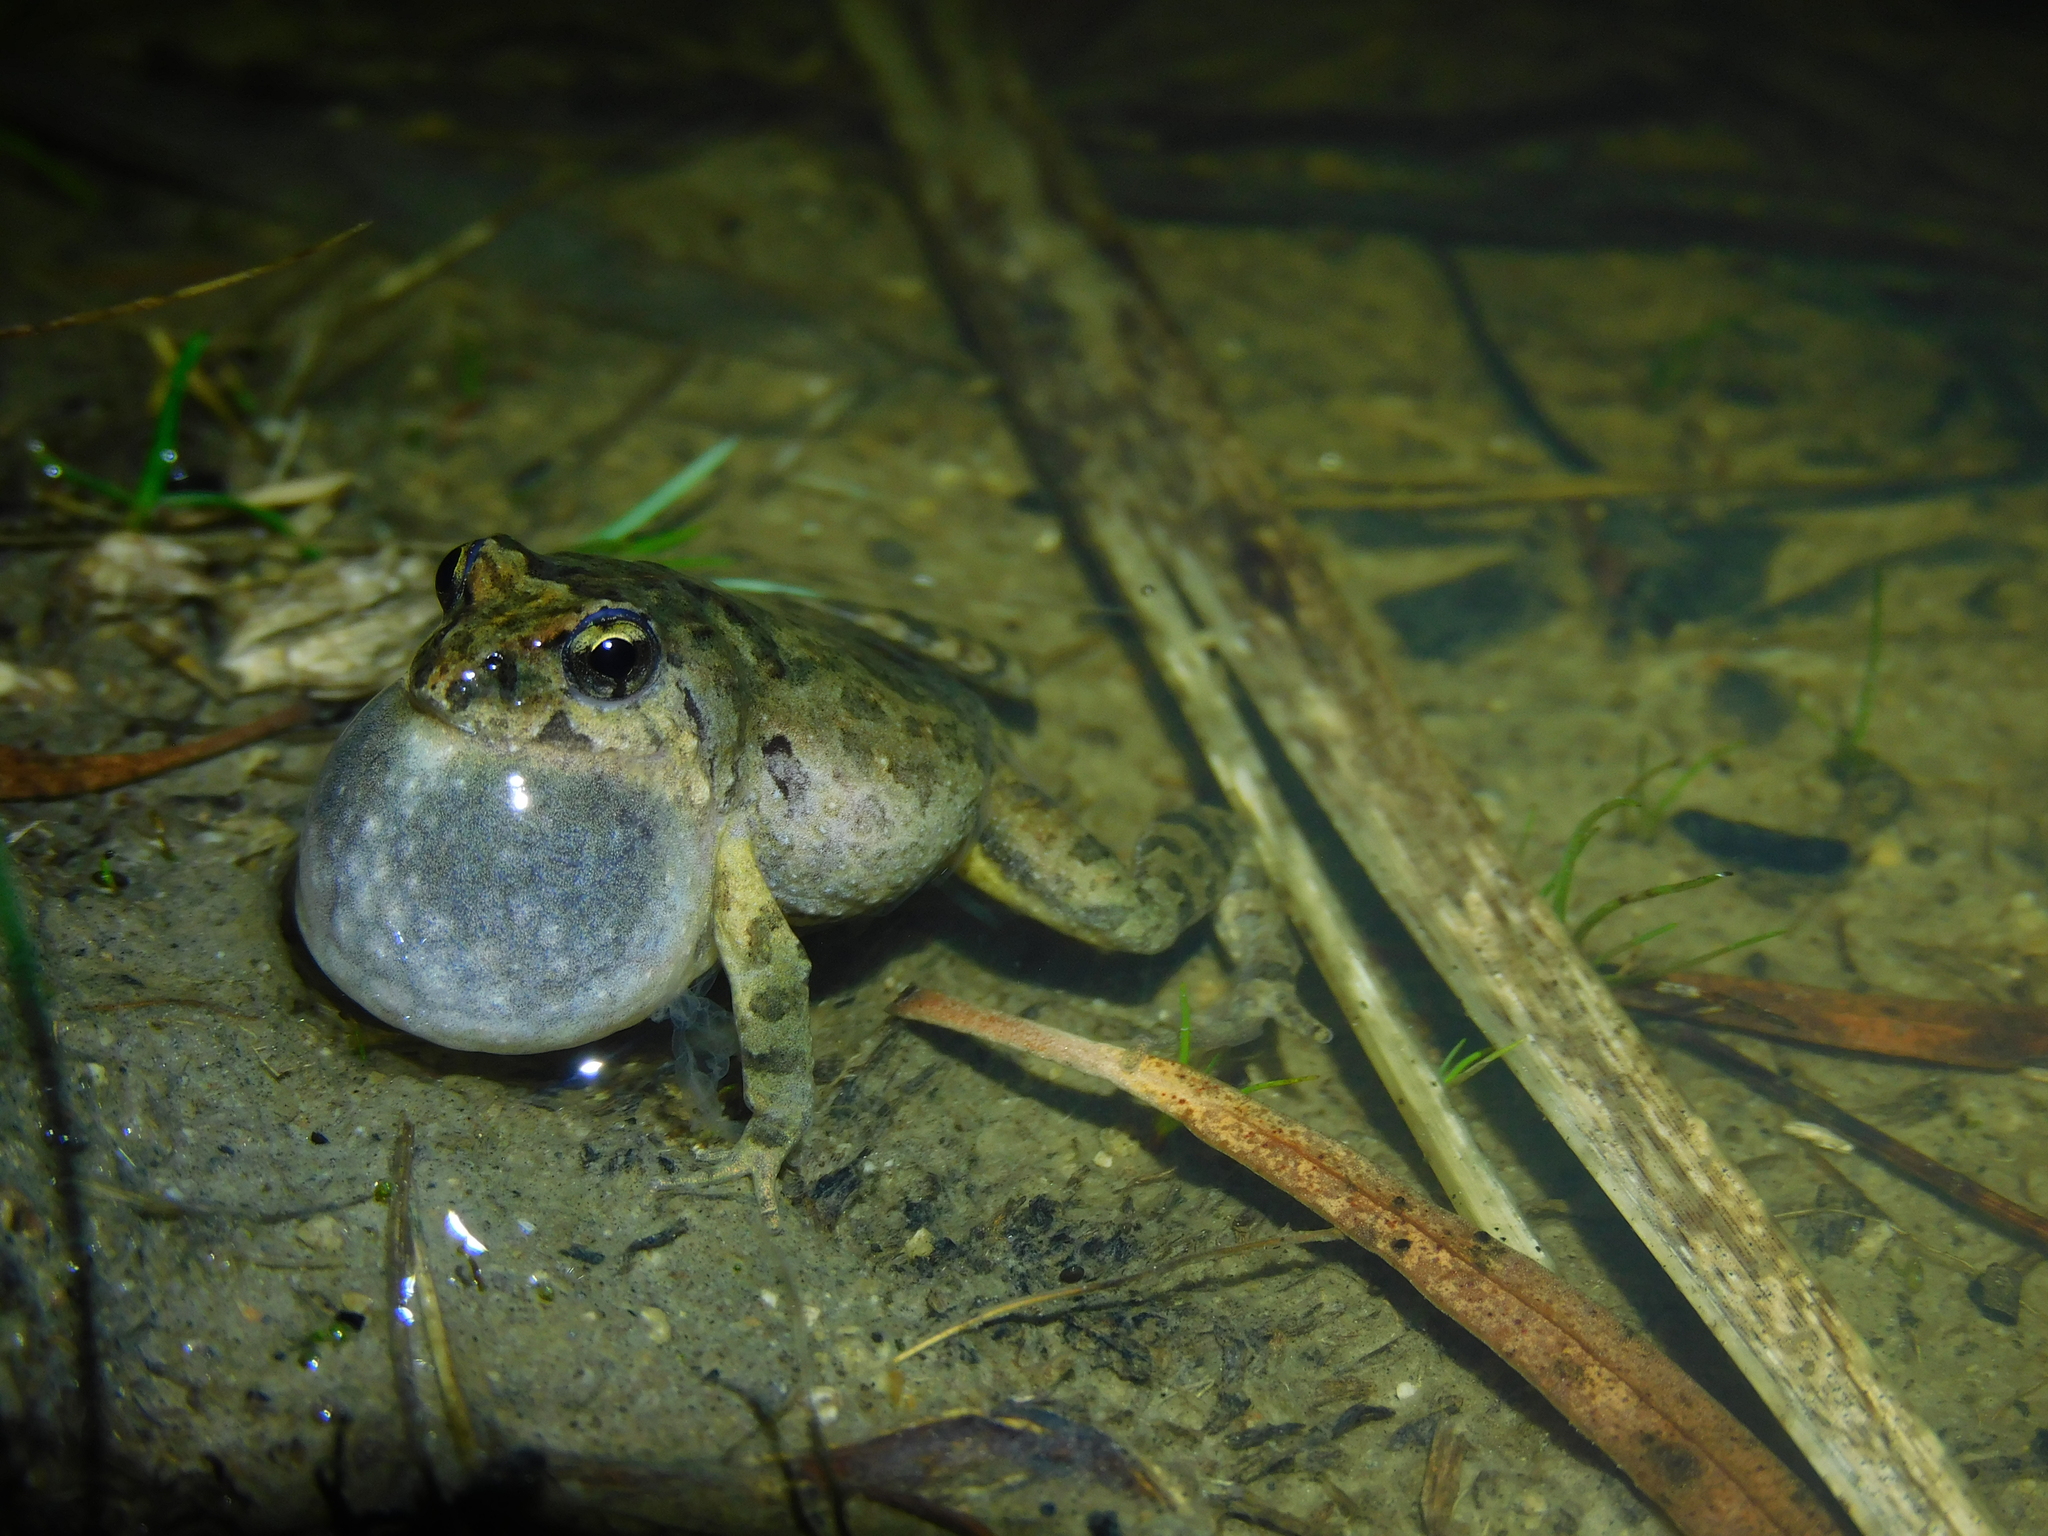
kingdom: Animalia
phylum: Chordata
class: Amphibia
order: Anura
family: Myobatrachidae
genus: Crinia
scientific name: Crinia signifera
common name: Brown froglet
